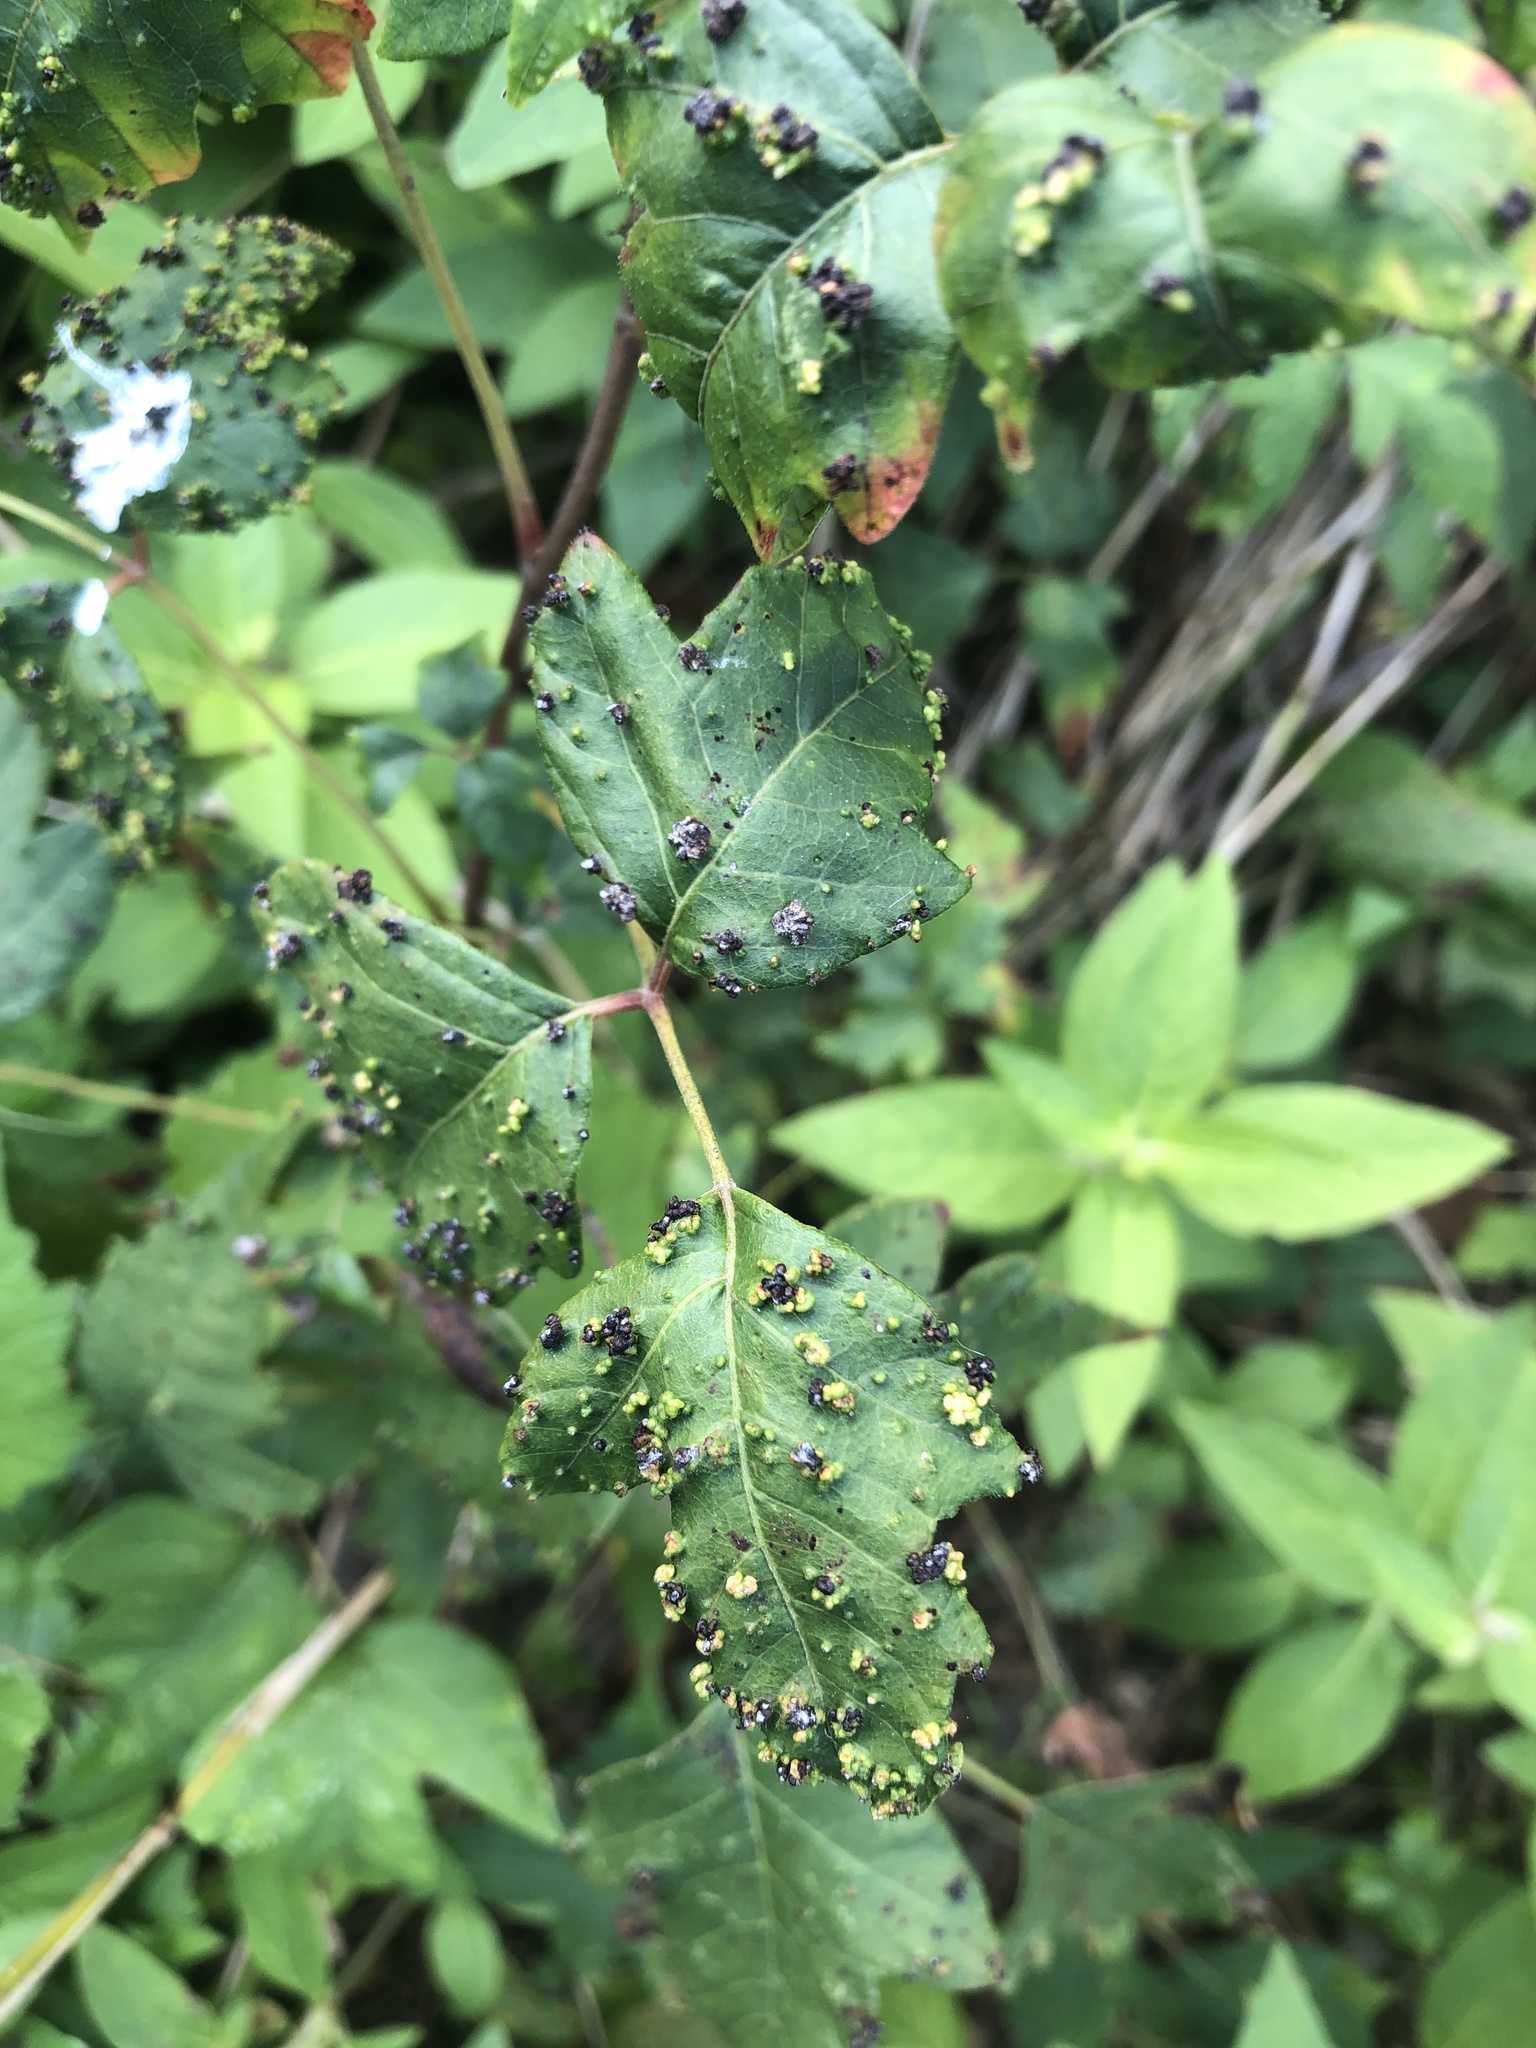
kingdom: Animalia
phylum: Arthropoda
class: Arachnida
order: Trombidiformes
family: Eriophyidae
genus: Aculops
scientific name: Aculops
